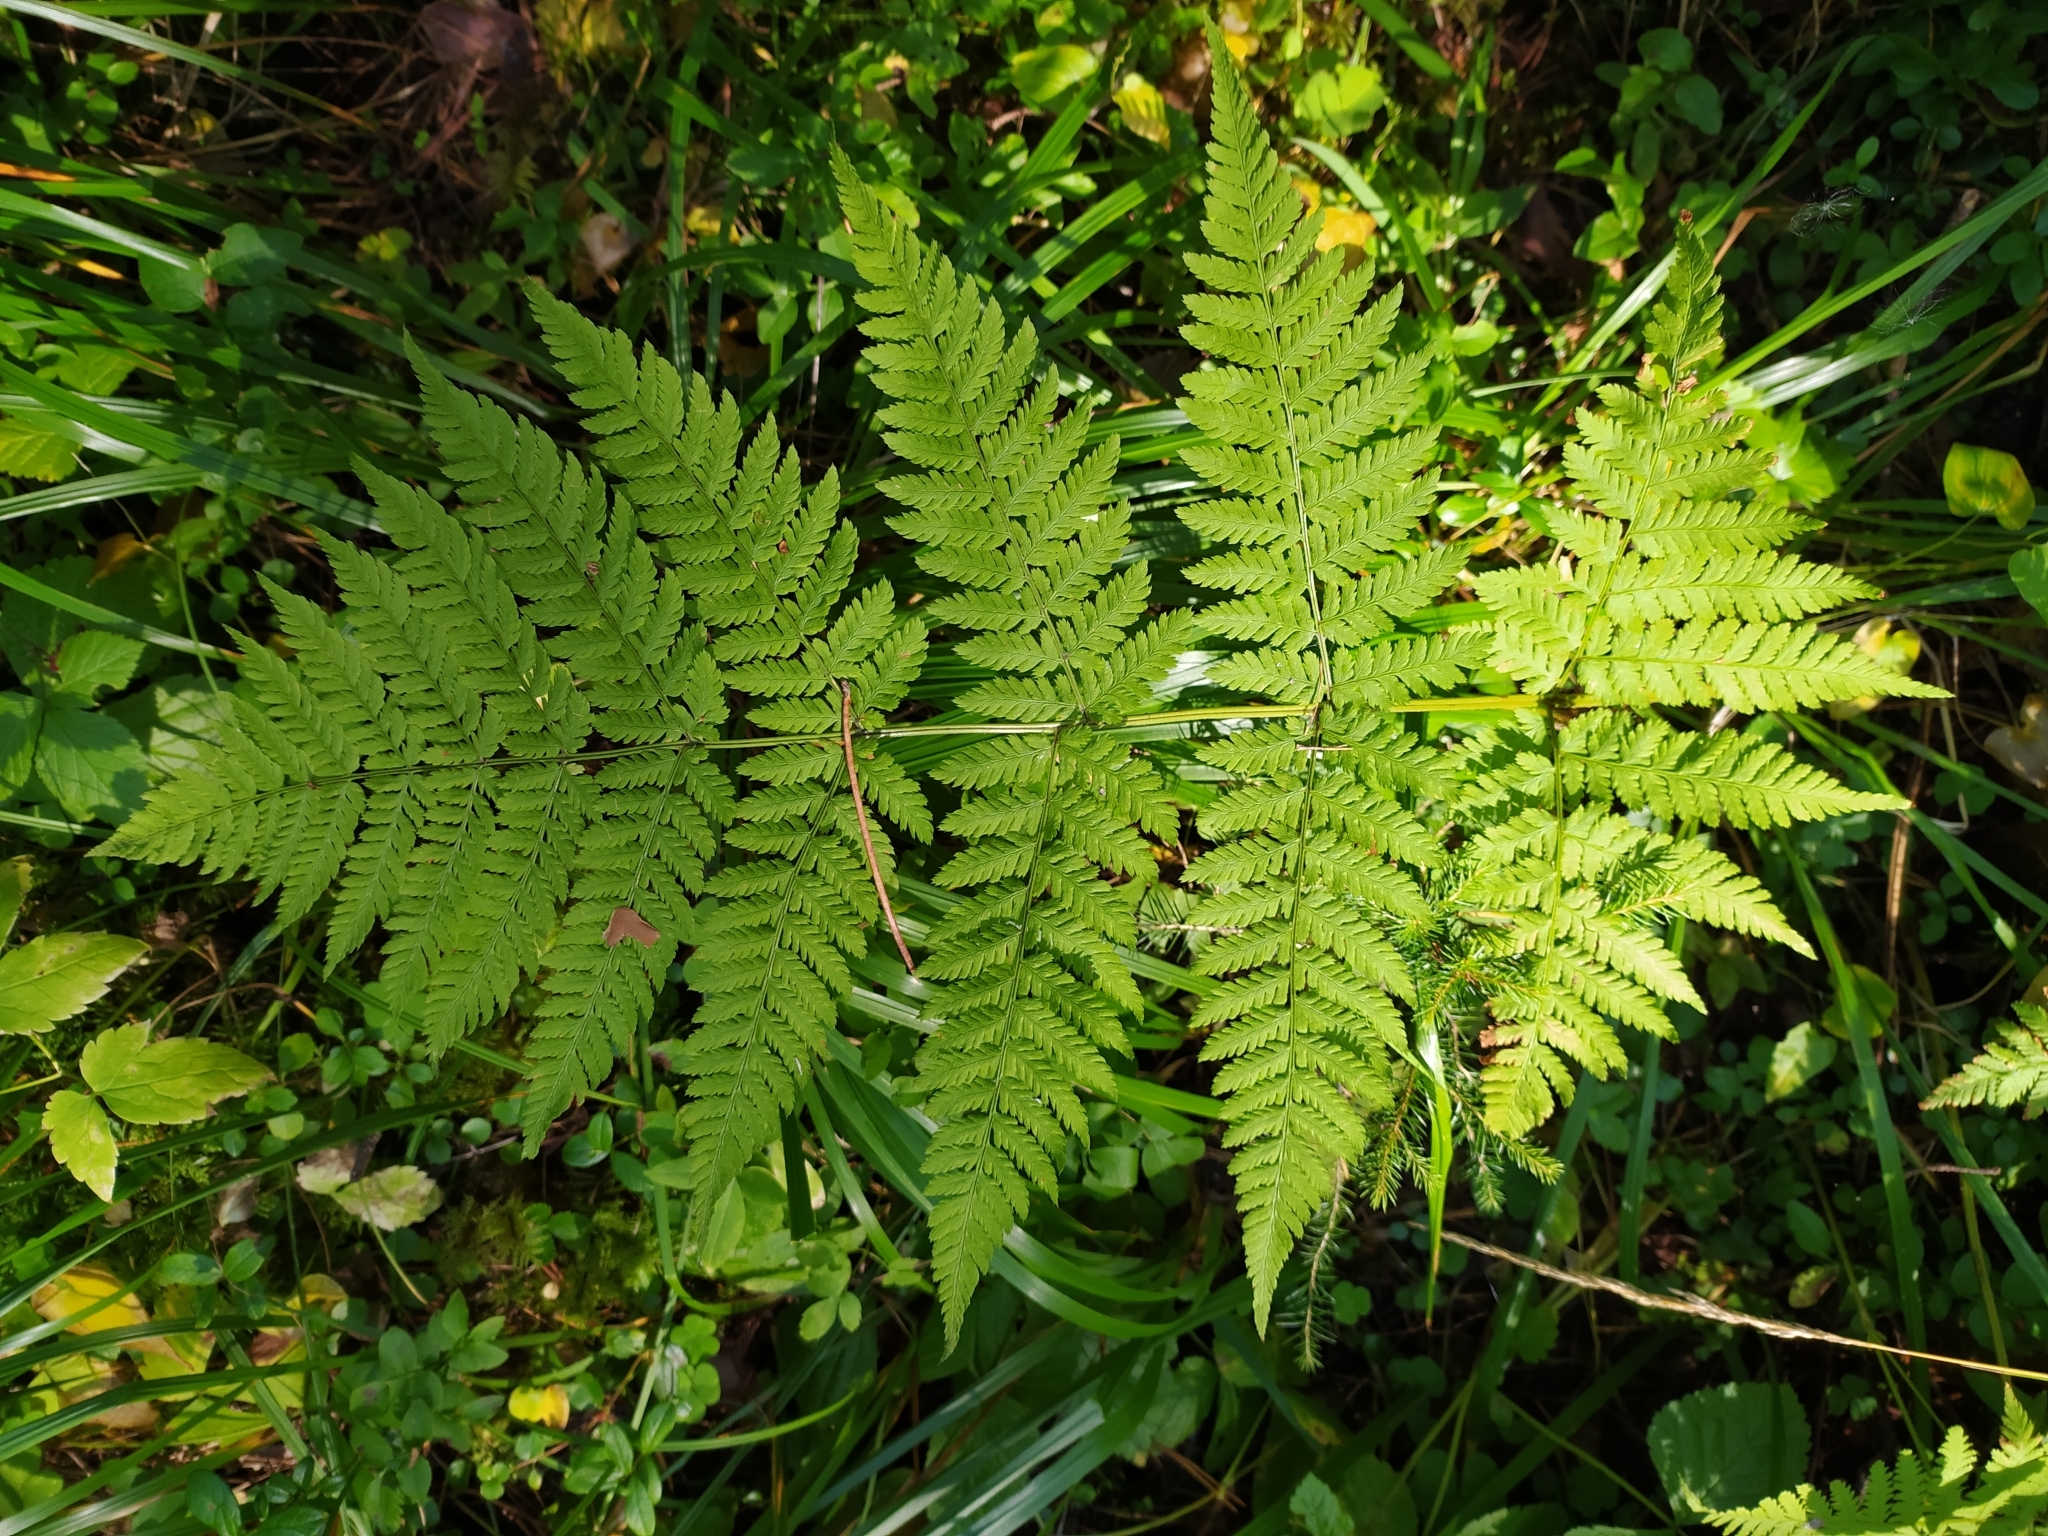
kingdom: Plantae
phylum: Tracheophyta
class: Polypodiopsida
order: Polypodiales
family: Dryopteridaceae
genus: Dryopteris
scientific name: Dryopteris carthusiana
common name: Narrow buckler-fern
